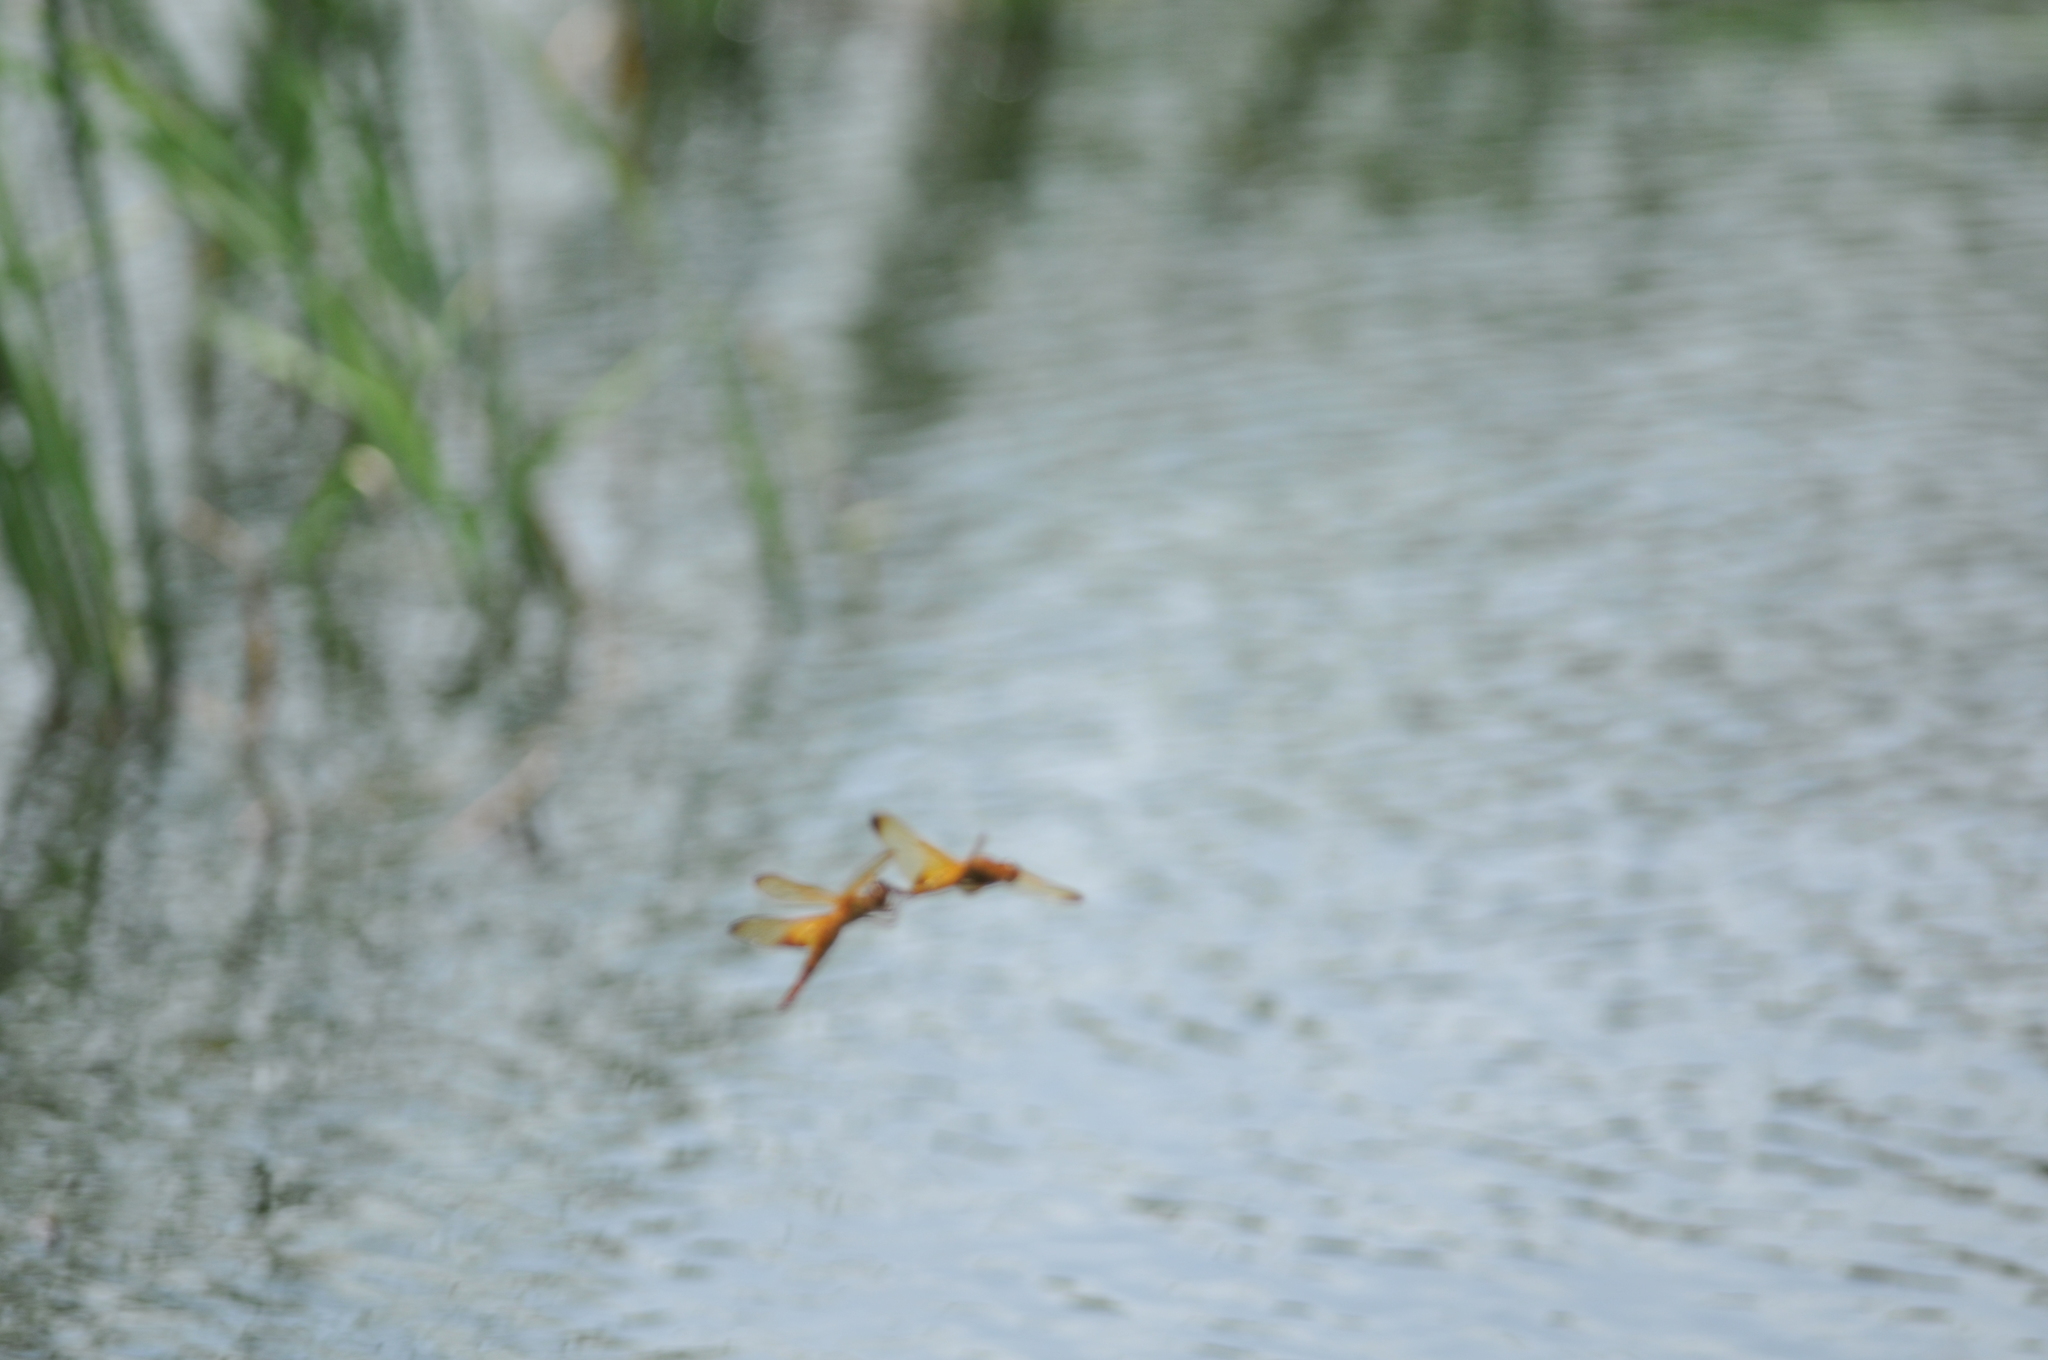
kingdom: Animalia
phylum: Arthropoda
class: Insecta
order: Odonata
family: Libellulidae
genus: Hydrobasileus
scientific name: Hydrobasileus croceus
